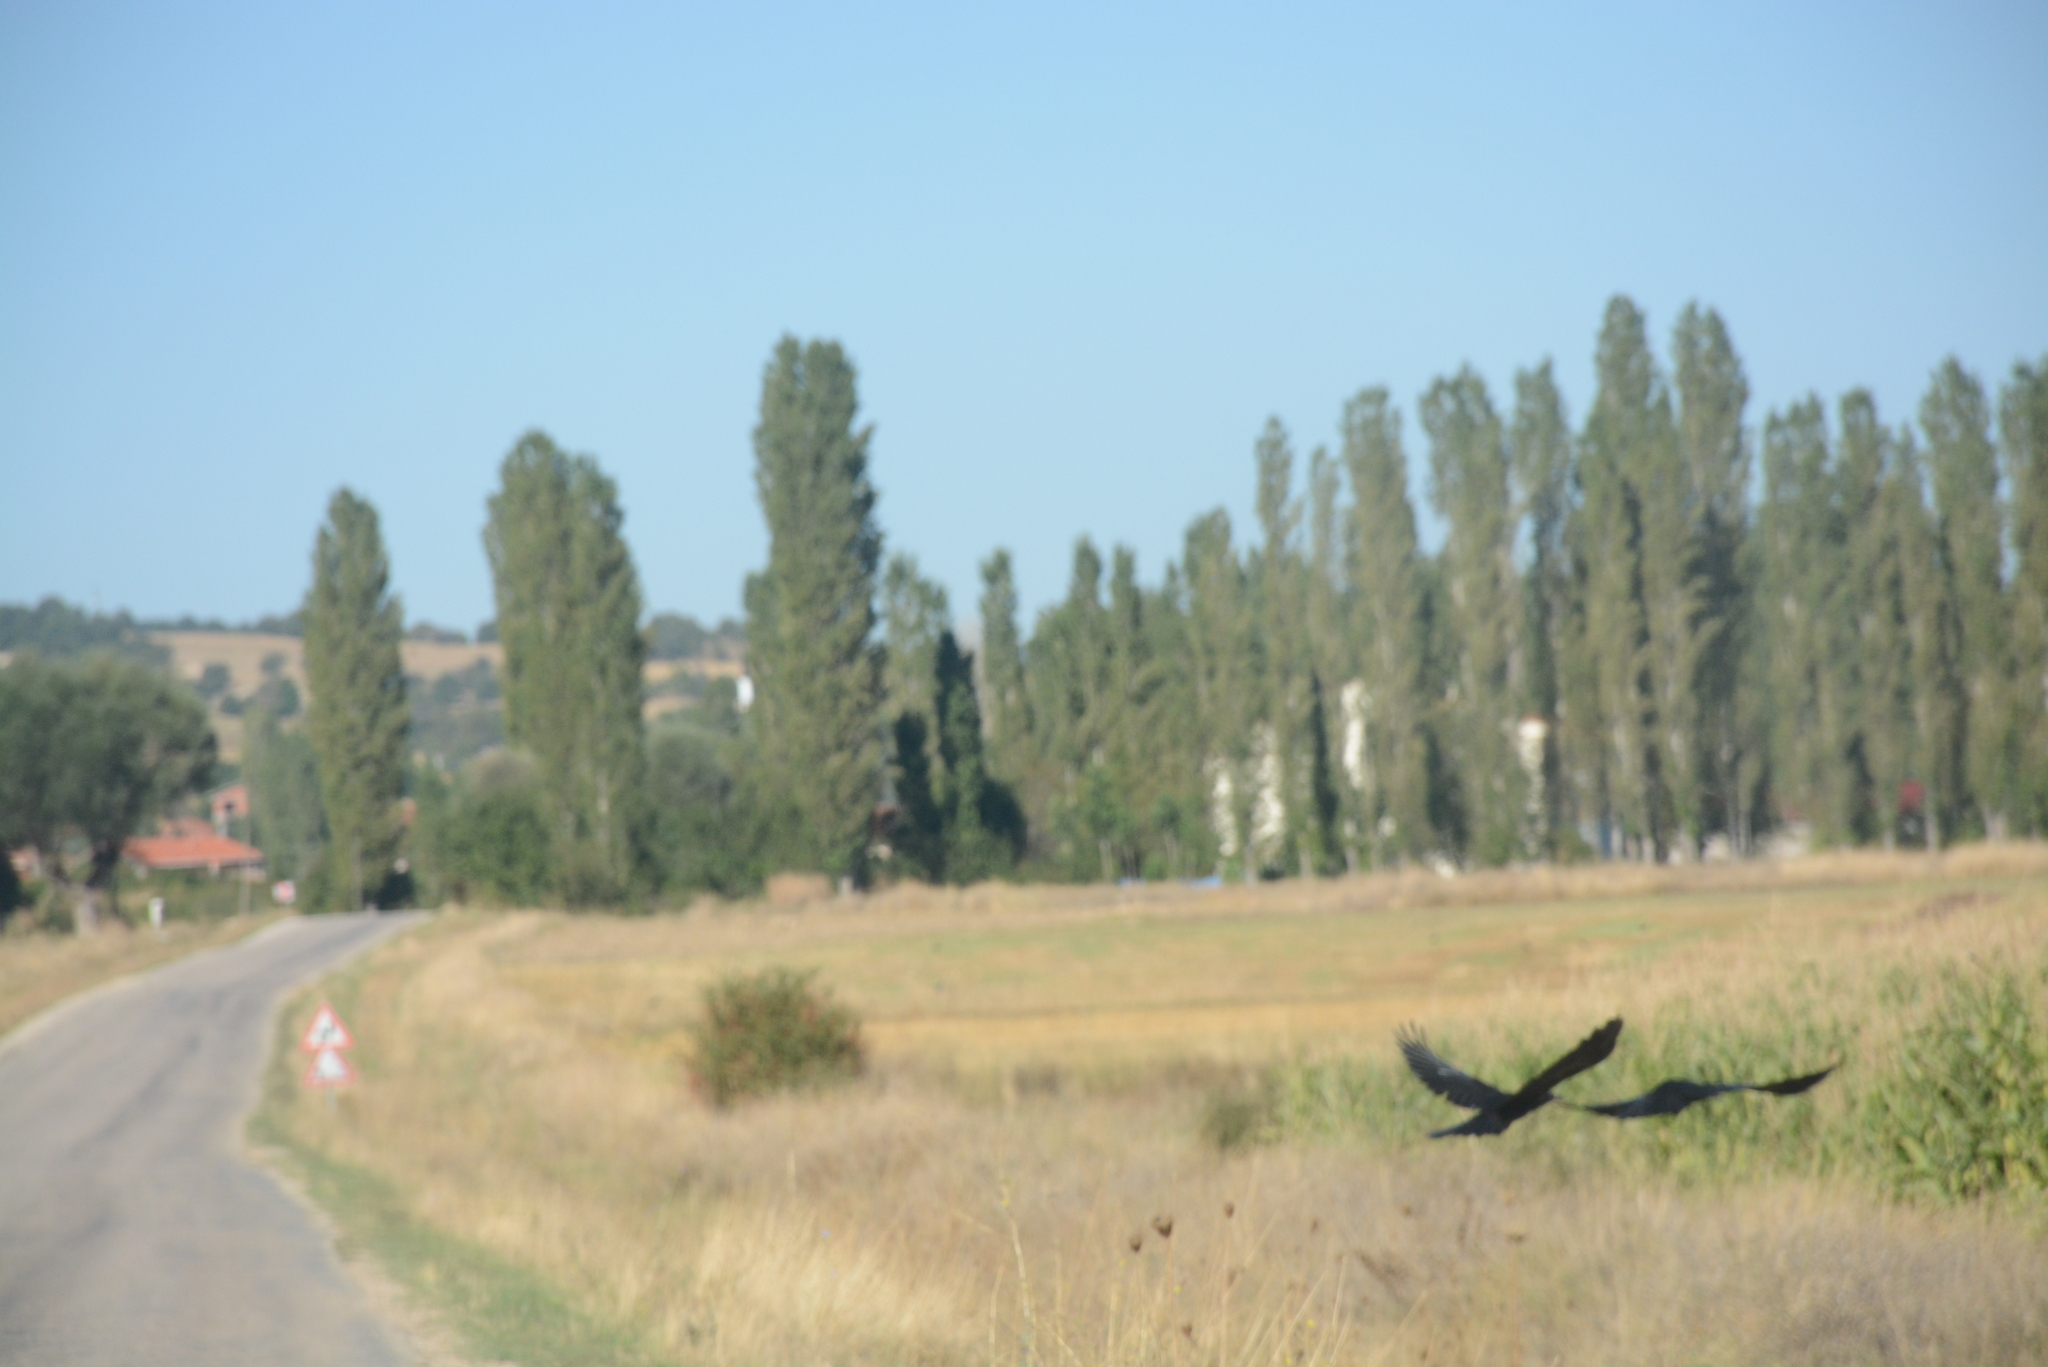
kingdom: Animalia
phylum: Chordata
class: Aves
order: Passeriformes
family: Corvidae
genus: Corvus
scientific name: Corvus frugilegus
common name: Rook
